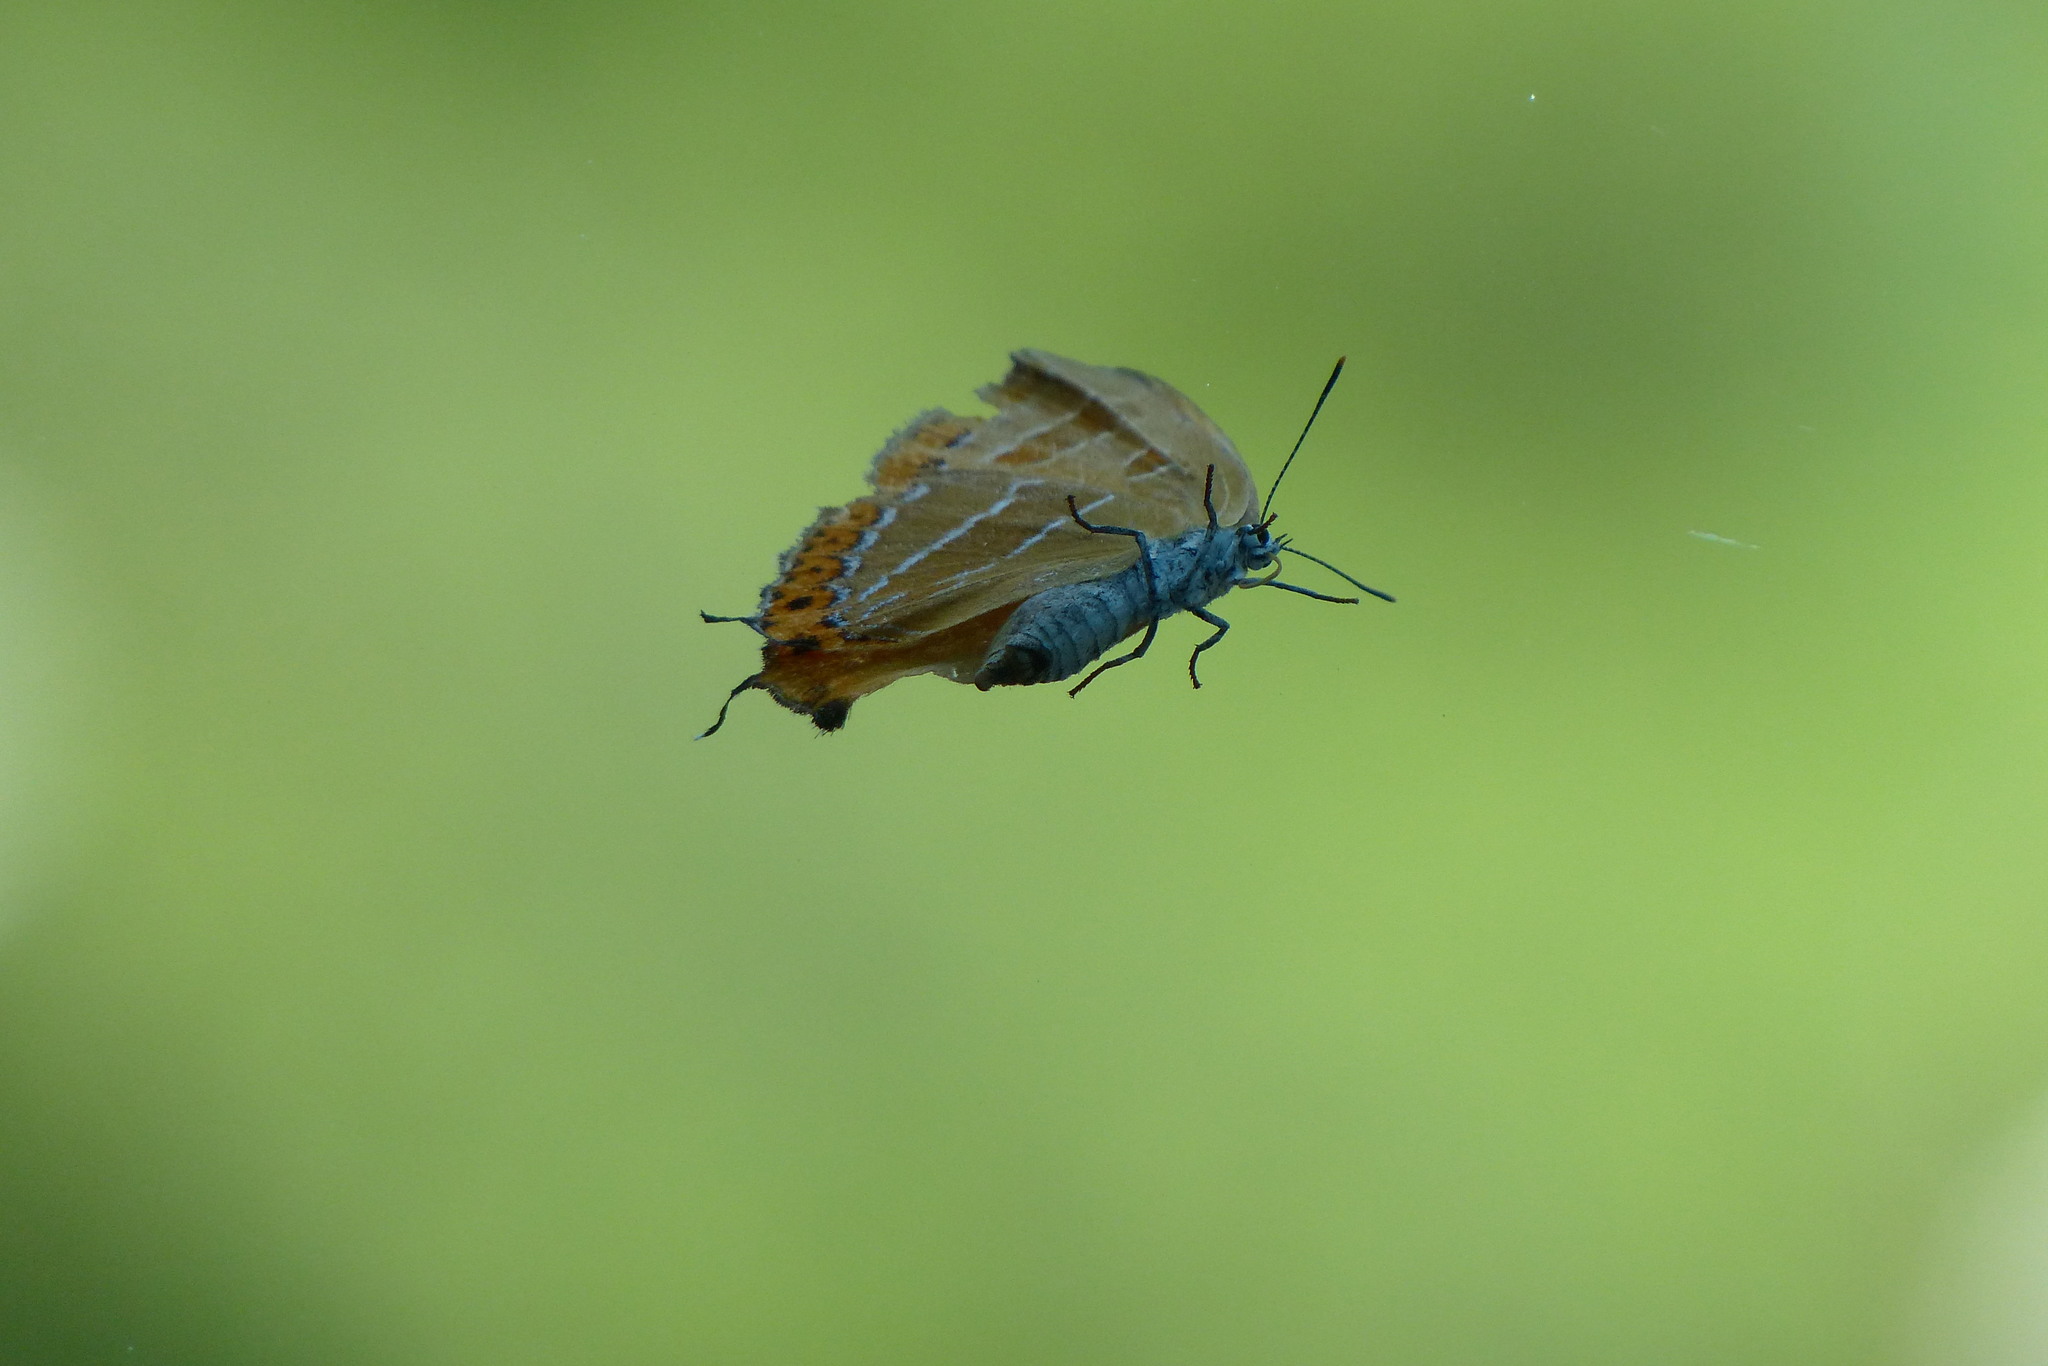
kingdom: Animalia
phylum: Arthropoda
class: Insecta
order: Lepidoptera
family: Lycaenidae
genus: Japonica
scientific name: Japonica lutea
